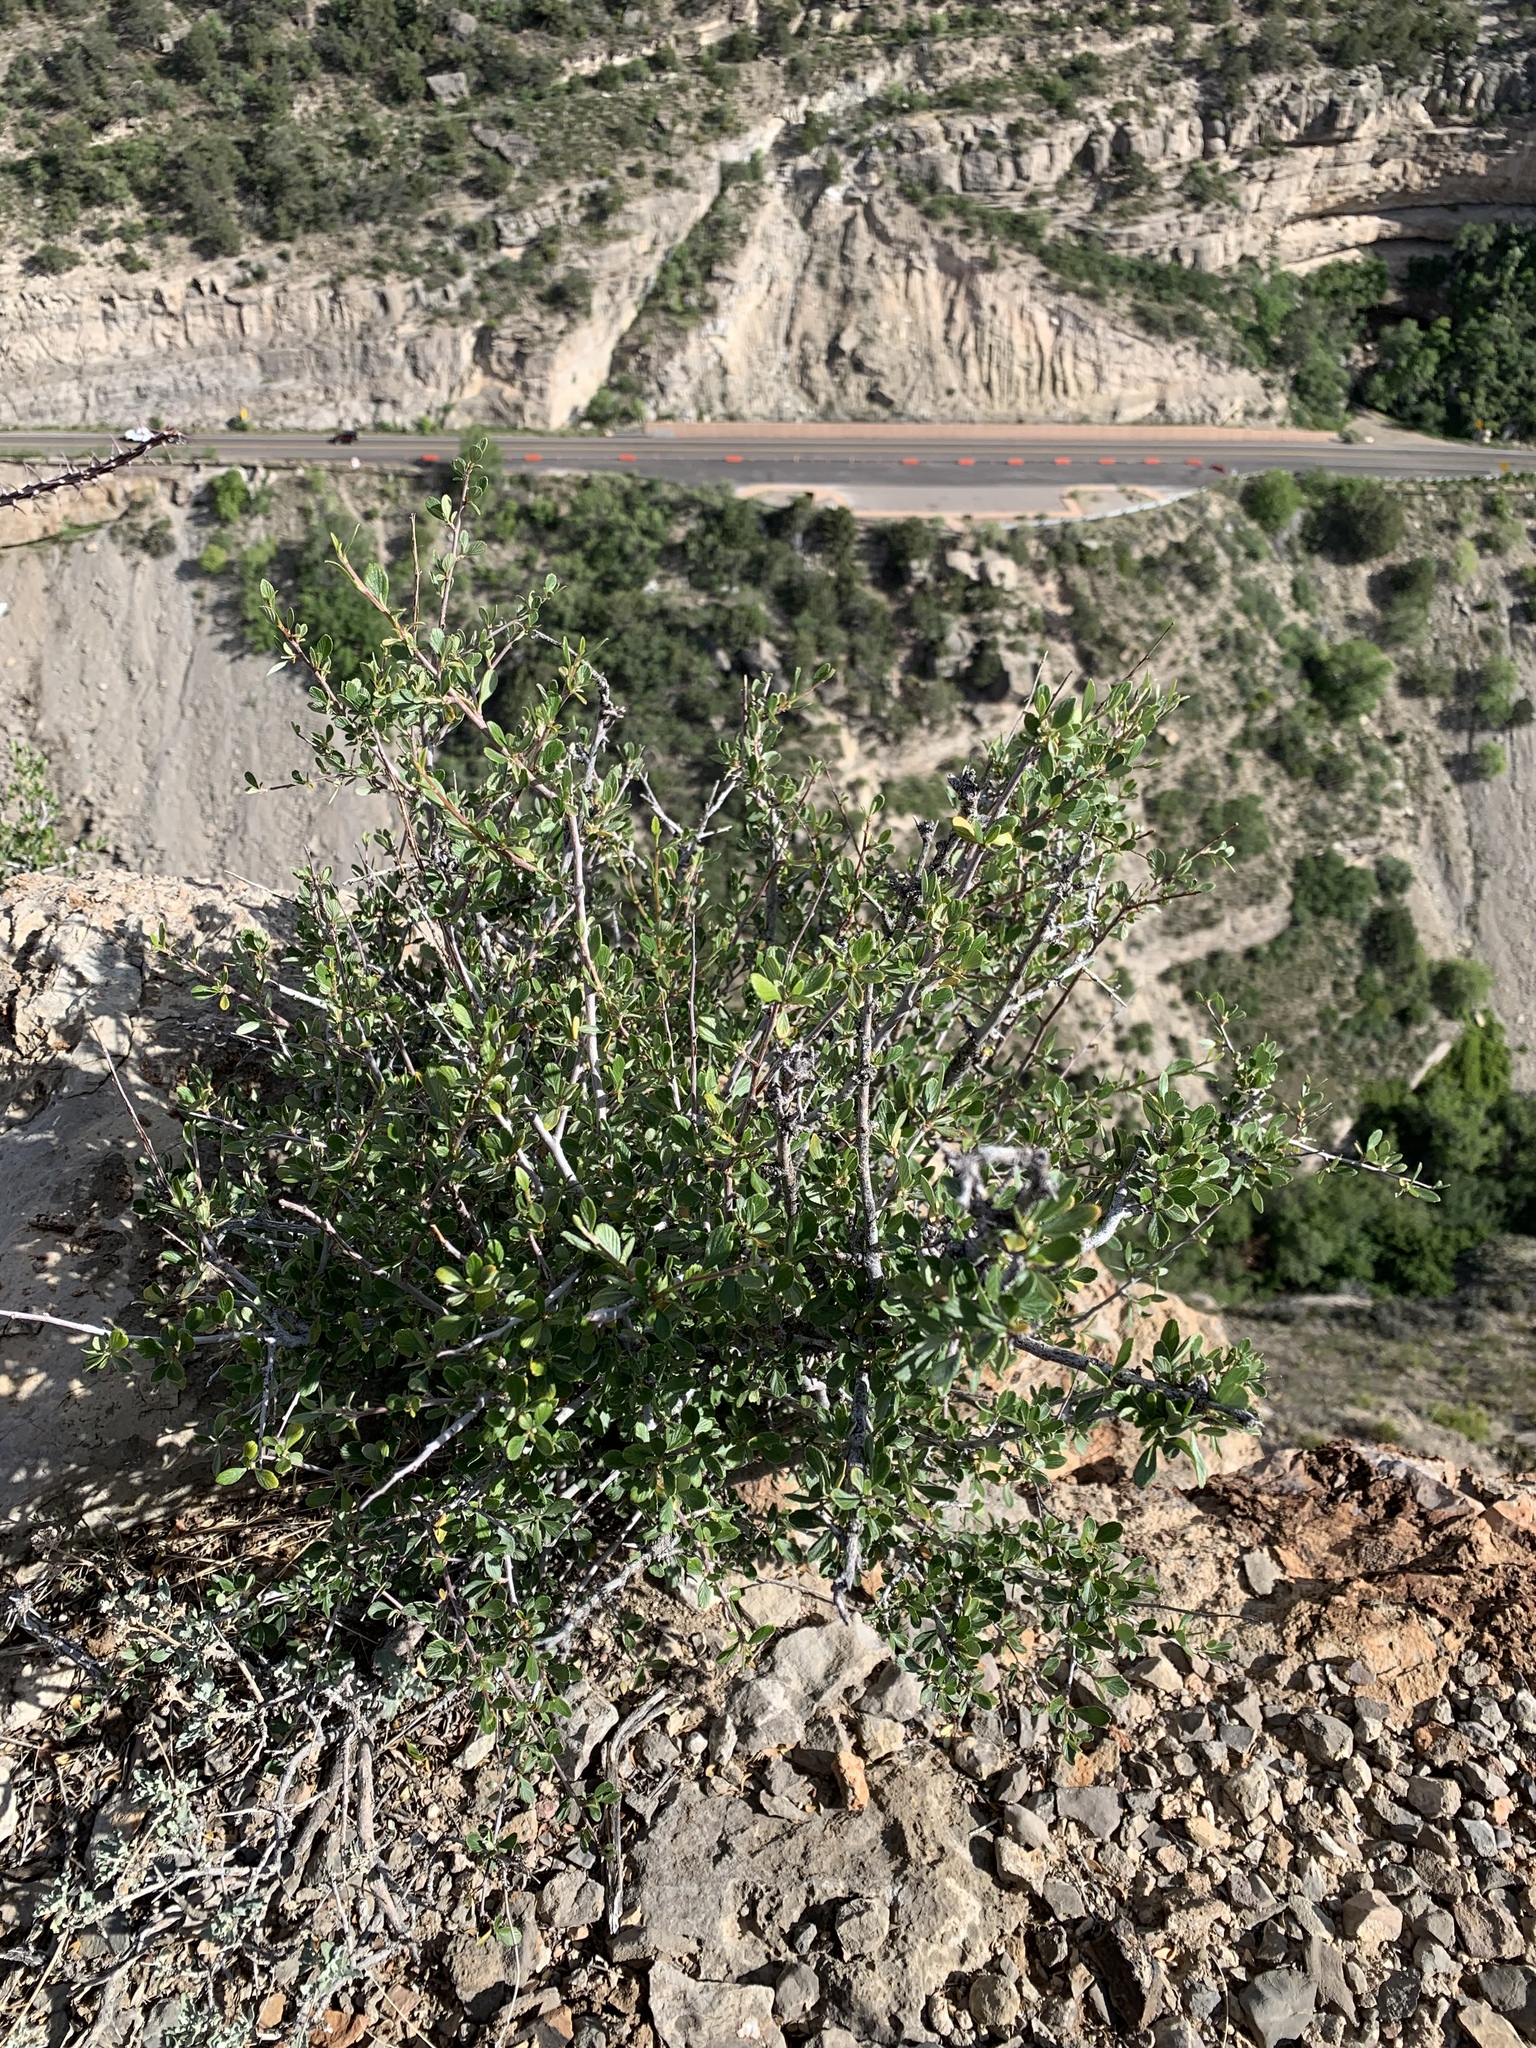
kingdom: Plantae
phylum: Tracheophyta
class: Magnoliopsida
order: Rosales
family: Rosaceae
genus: Cercocarpus
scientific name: Cercocarpus breviflorus
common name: Wright's mountain-mahogany
